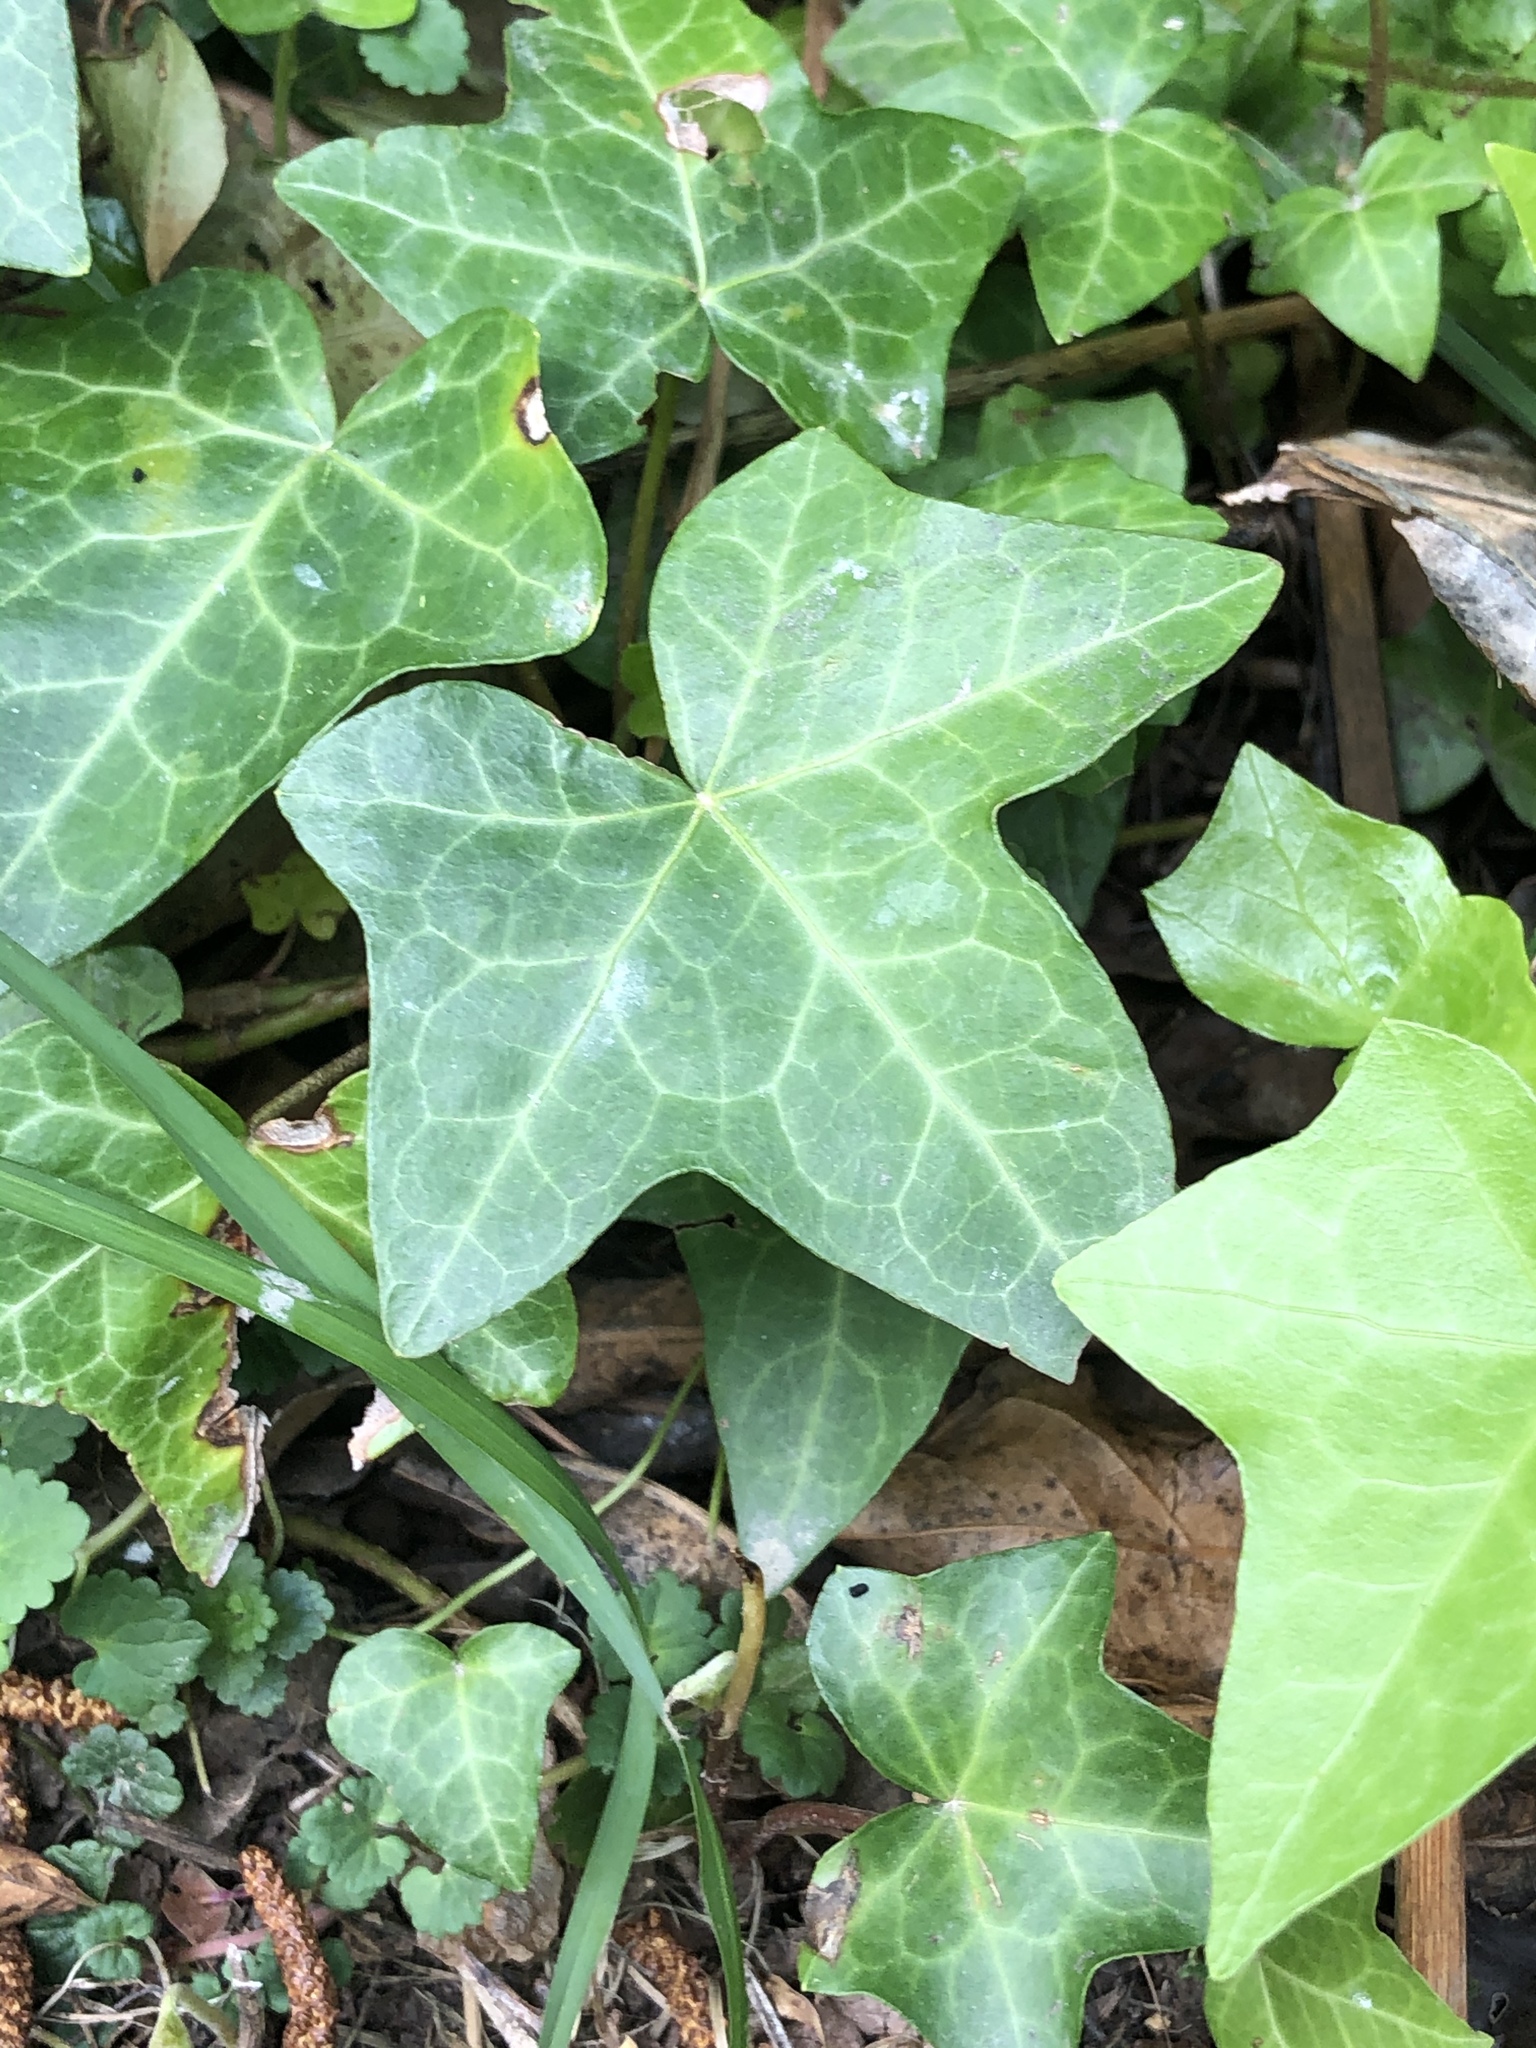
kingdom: Plantae
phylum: Tracheophyta
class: Magnoliopsida
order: Apiales
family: Araliaceae
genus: Hedera
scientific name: Hedera helix
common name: Ivy
